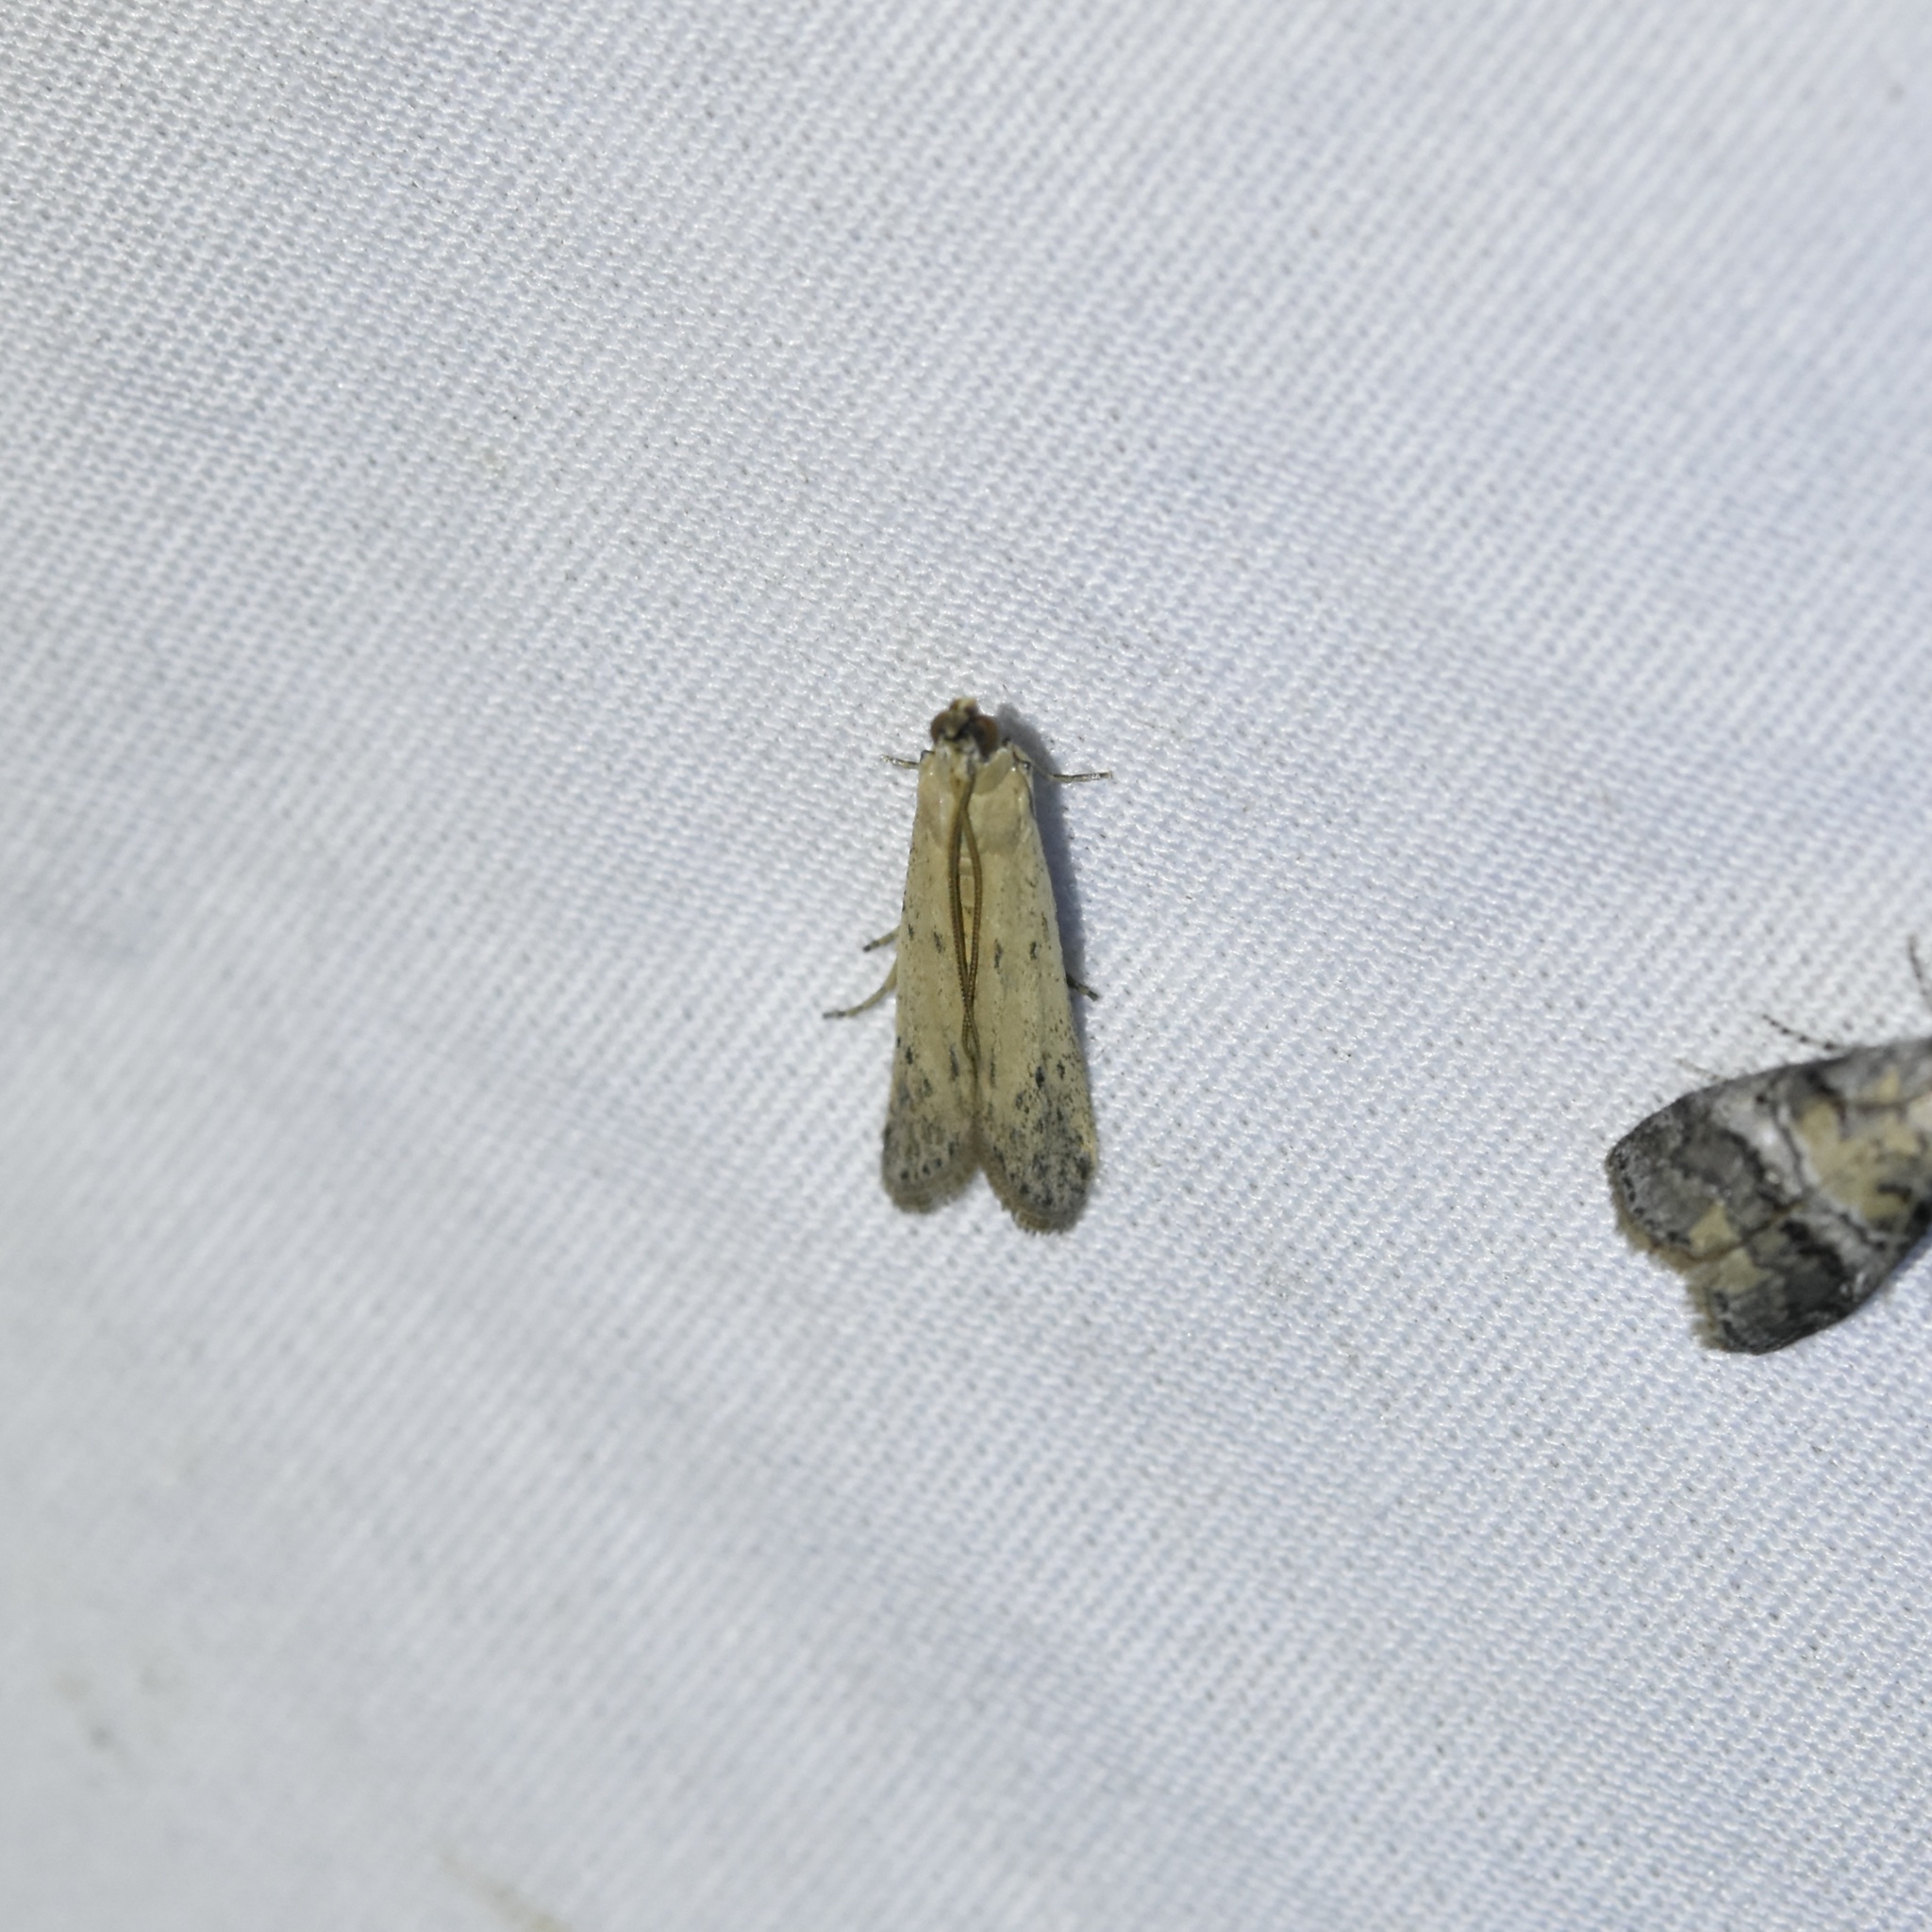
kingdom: Animalia
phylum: Arthropoda
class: Insecta
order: Lepidoptera
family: Pyralidae
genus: Homoeosoma
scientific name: Homoeosoma electella
